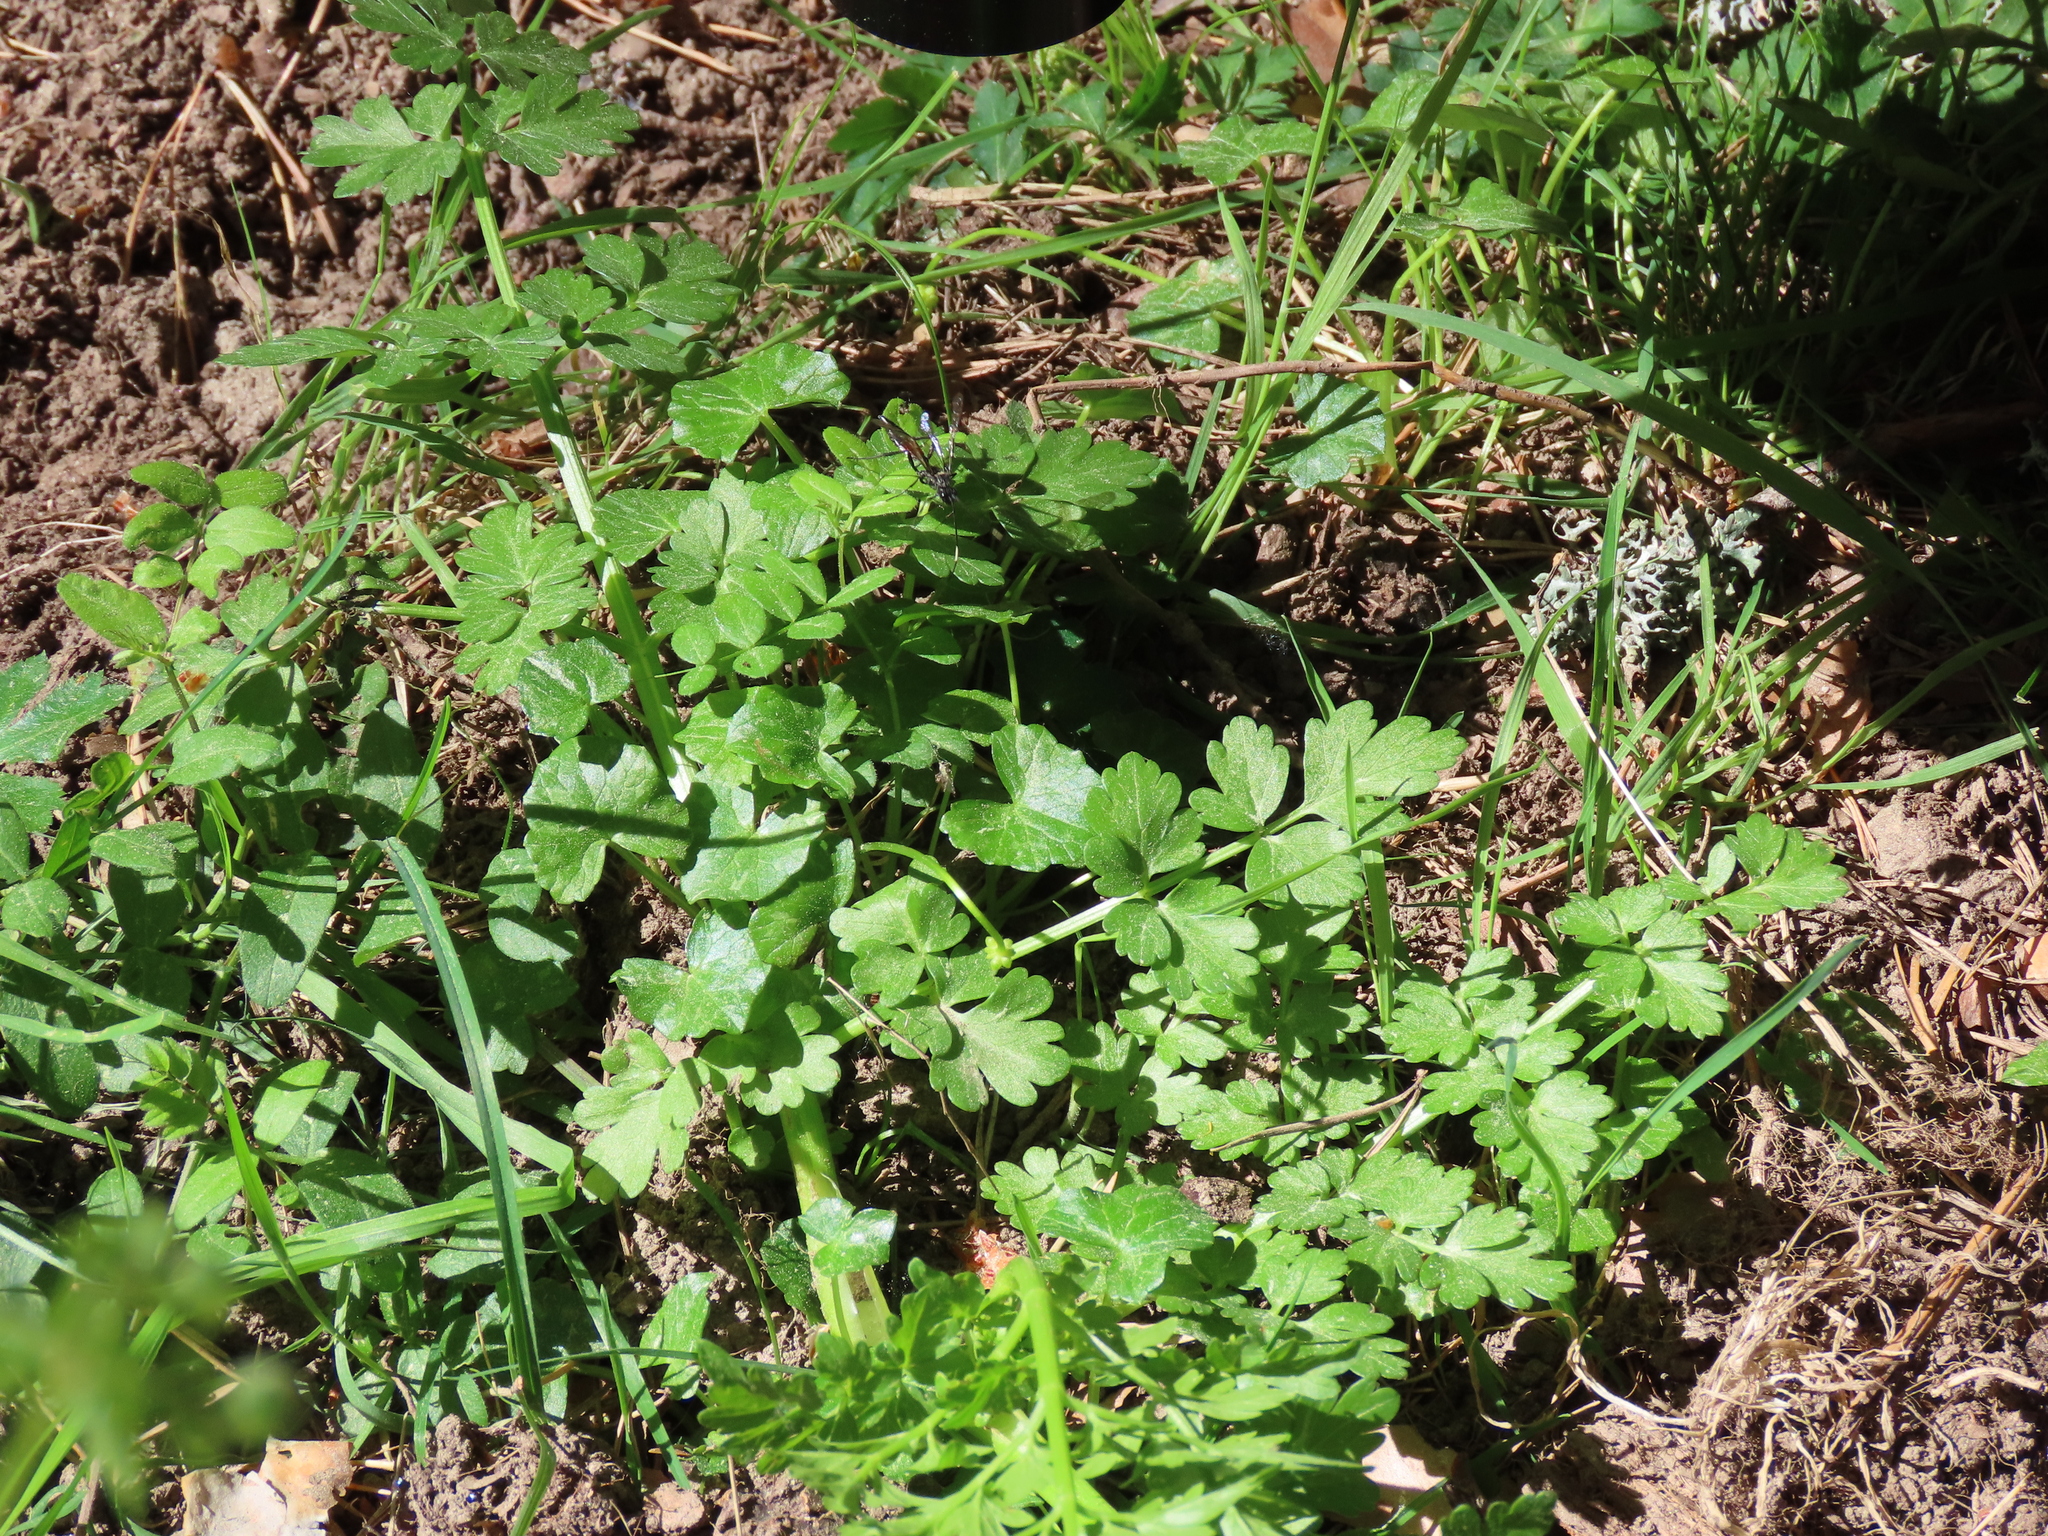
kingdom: Plantae
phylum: Tracheophyta
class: Magnoliopsida
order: Ranunculales
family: Papaveraceae
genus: Chelidonium
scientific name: Chelidonium majus
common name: Greater celandine
